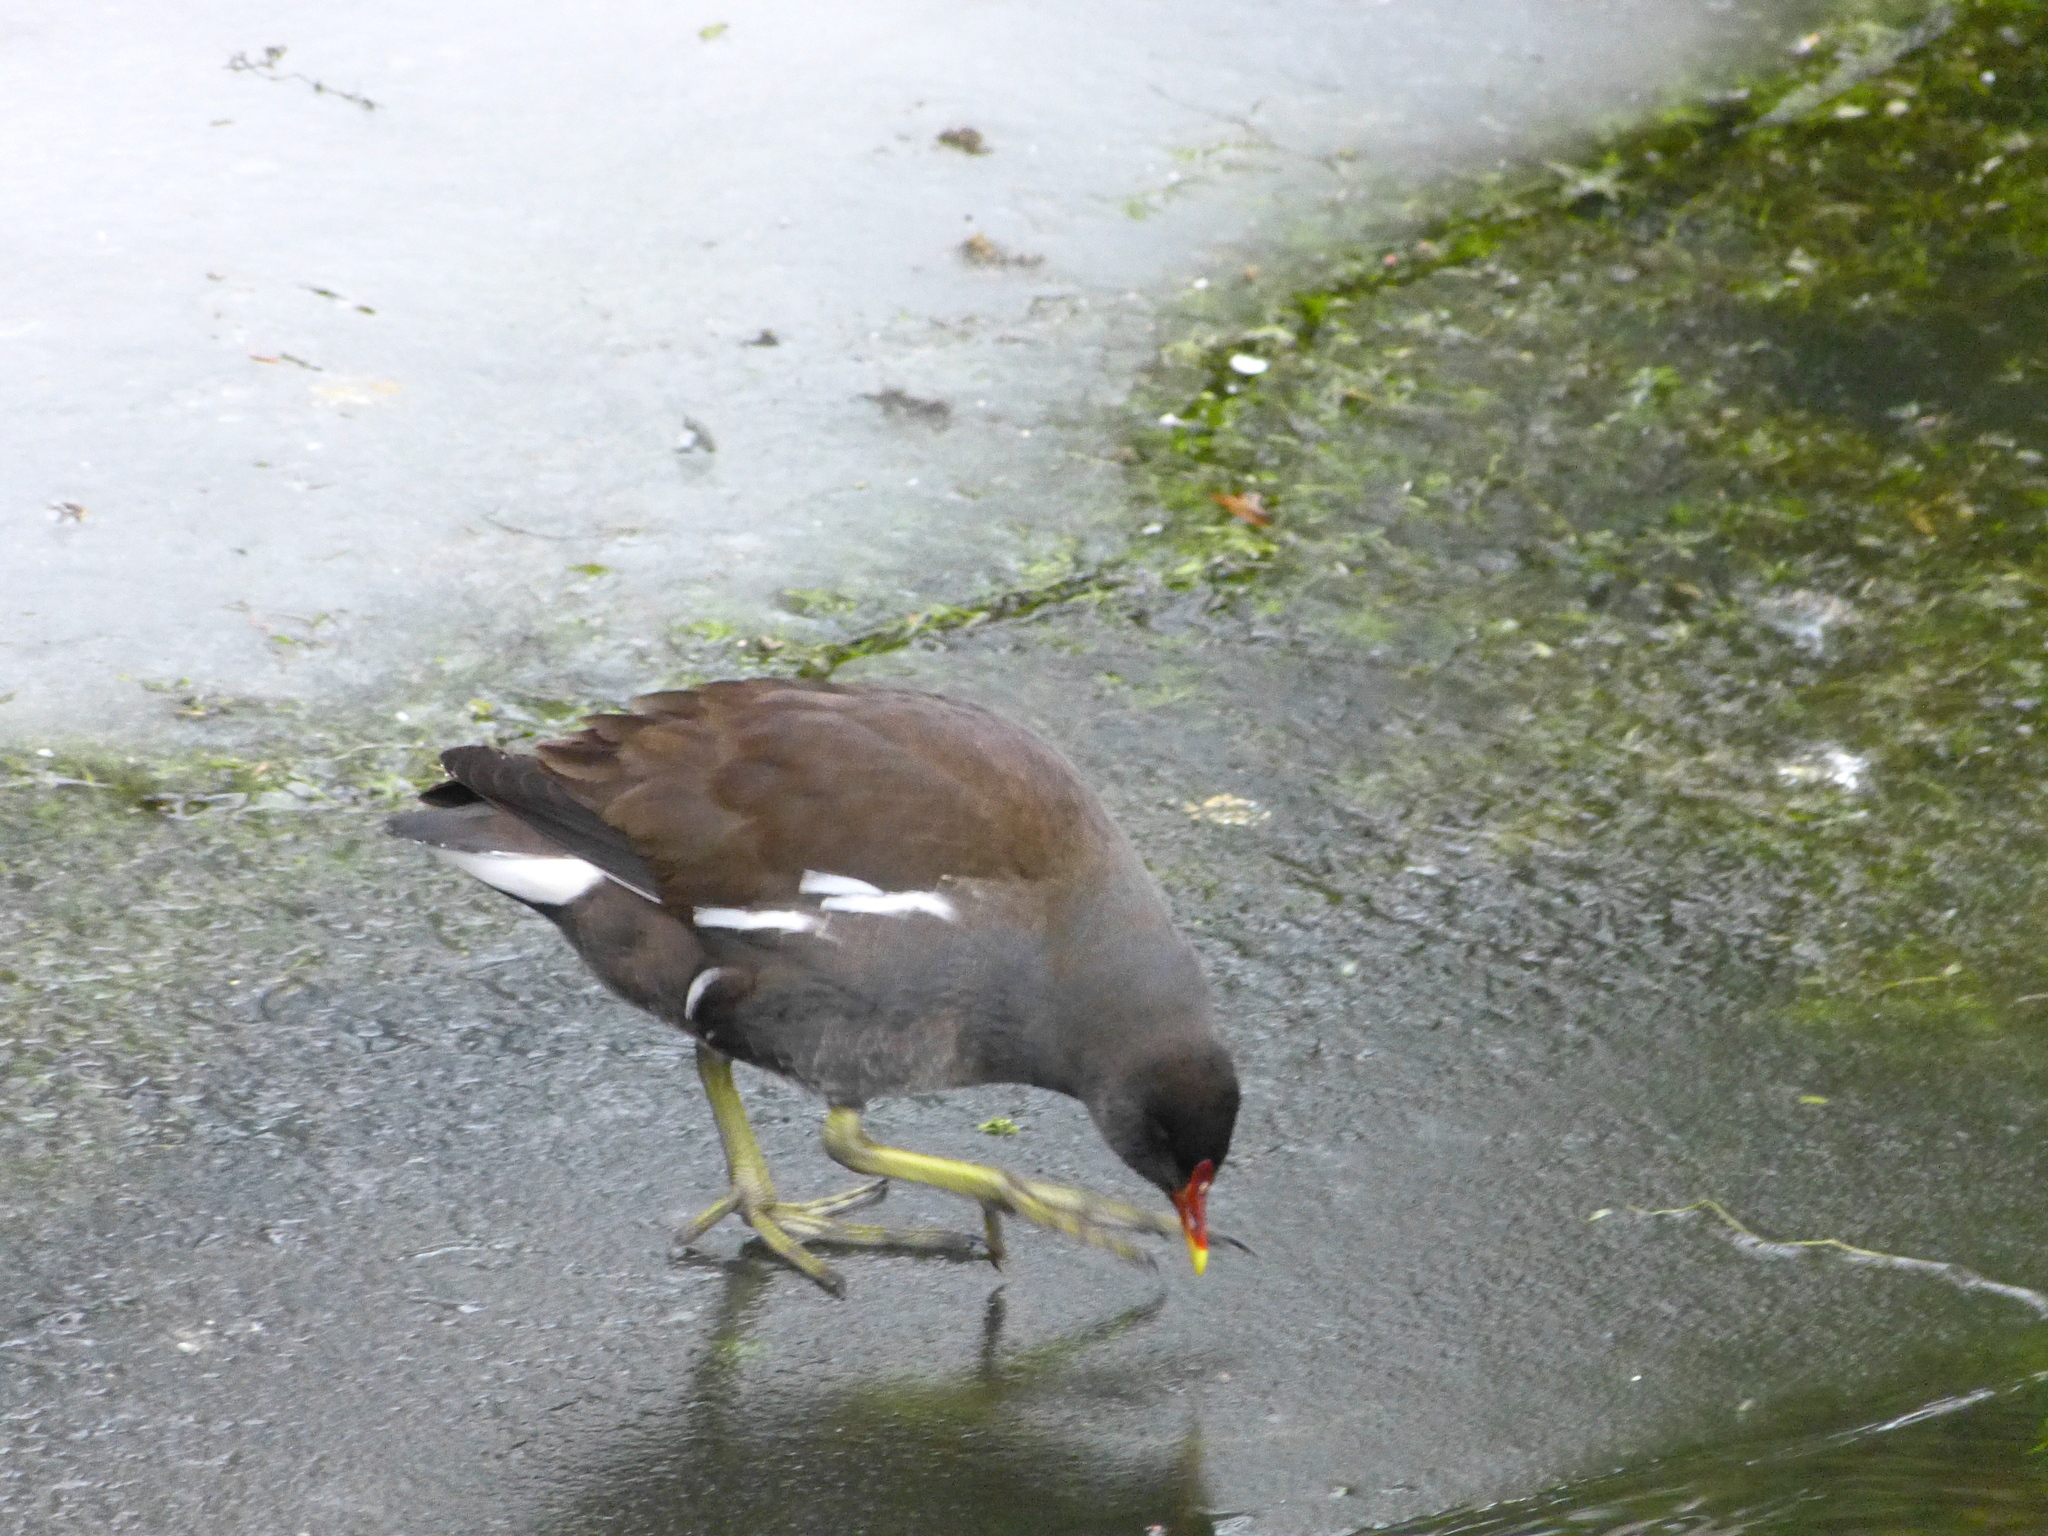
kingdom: Animalia
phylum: Chordata
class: Aves
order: Gruiformes
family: Rallidae
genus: Gallinula
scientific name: Gallinula chloropus
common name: Common moorhen
